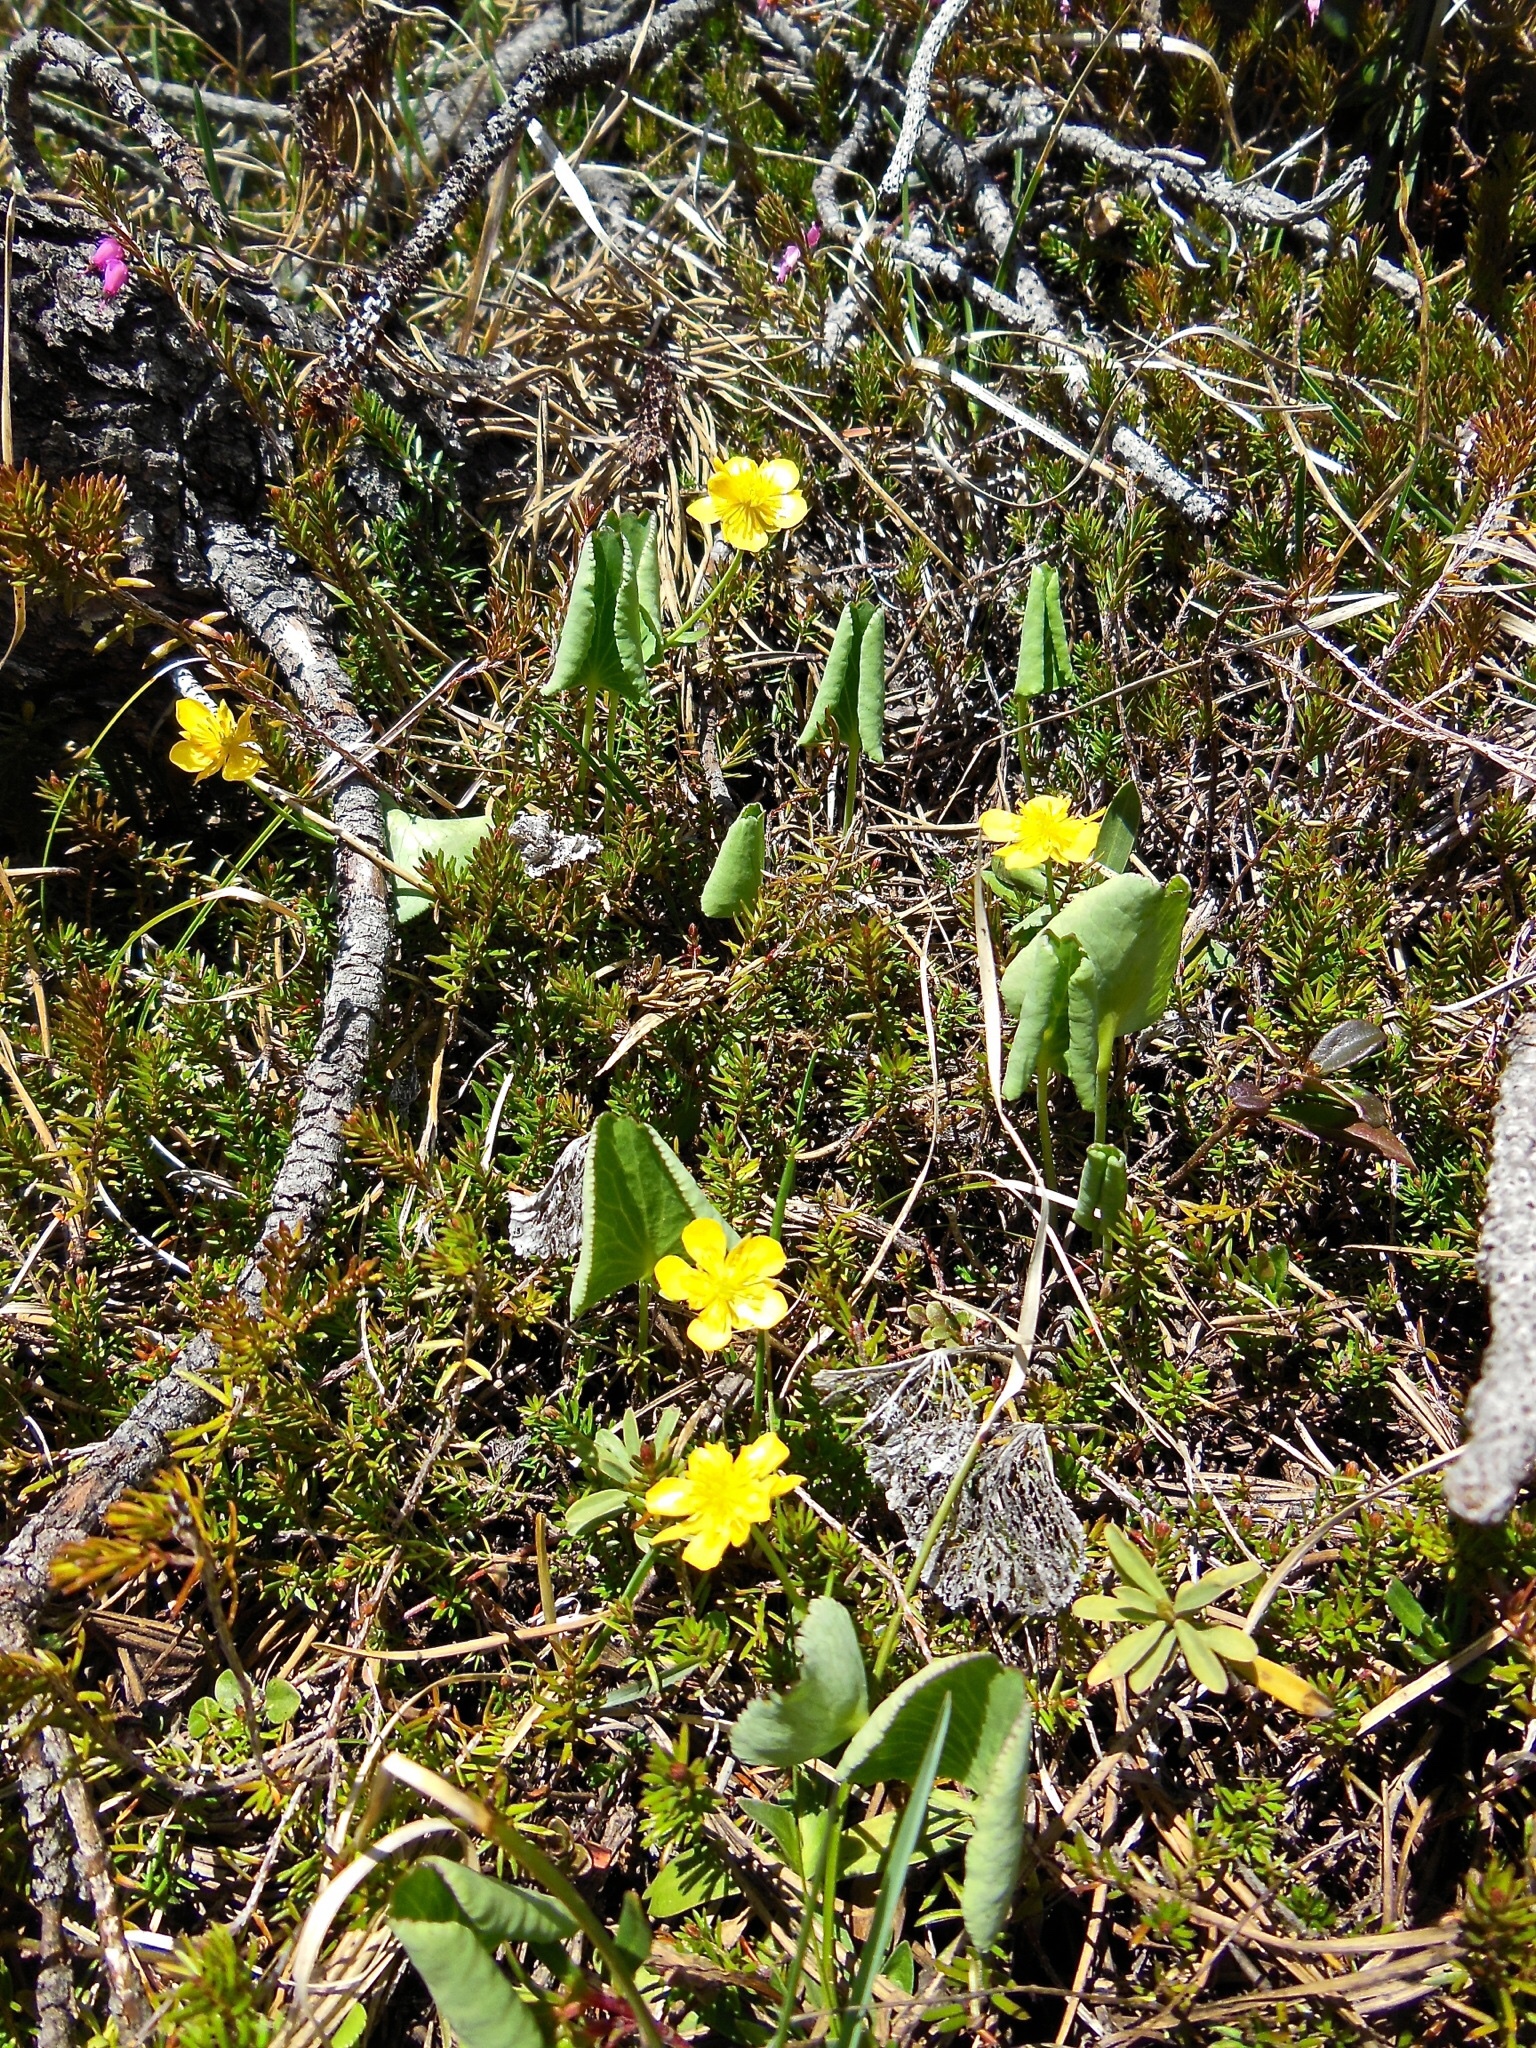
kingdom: Plantae
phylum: Tracheophyta
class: Magnoliopsida
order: Ranunculales
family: Ranunculaceae
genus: Ranunculus
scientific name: Ranunculus thora
